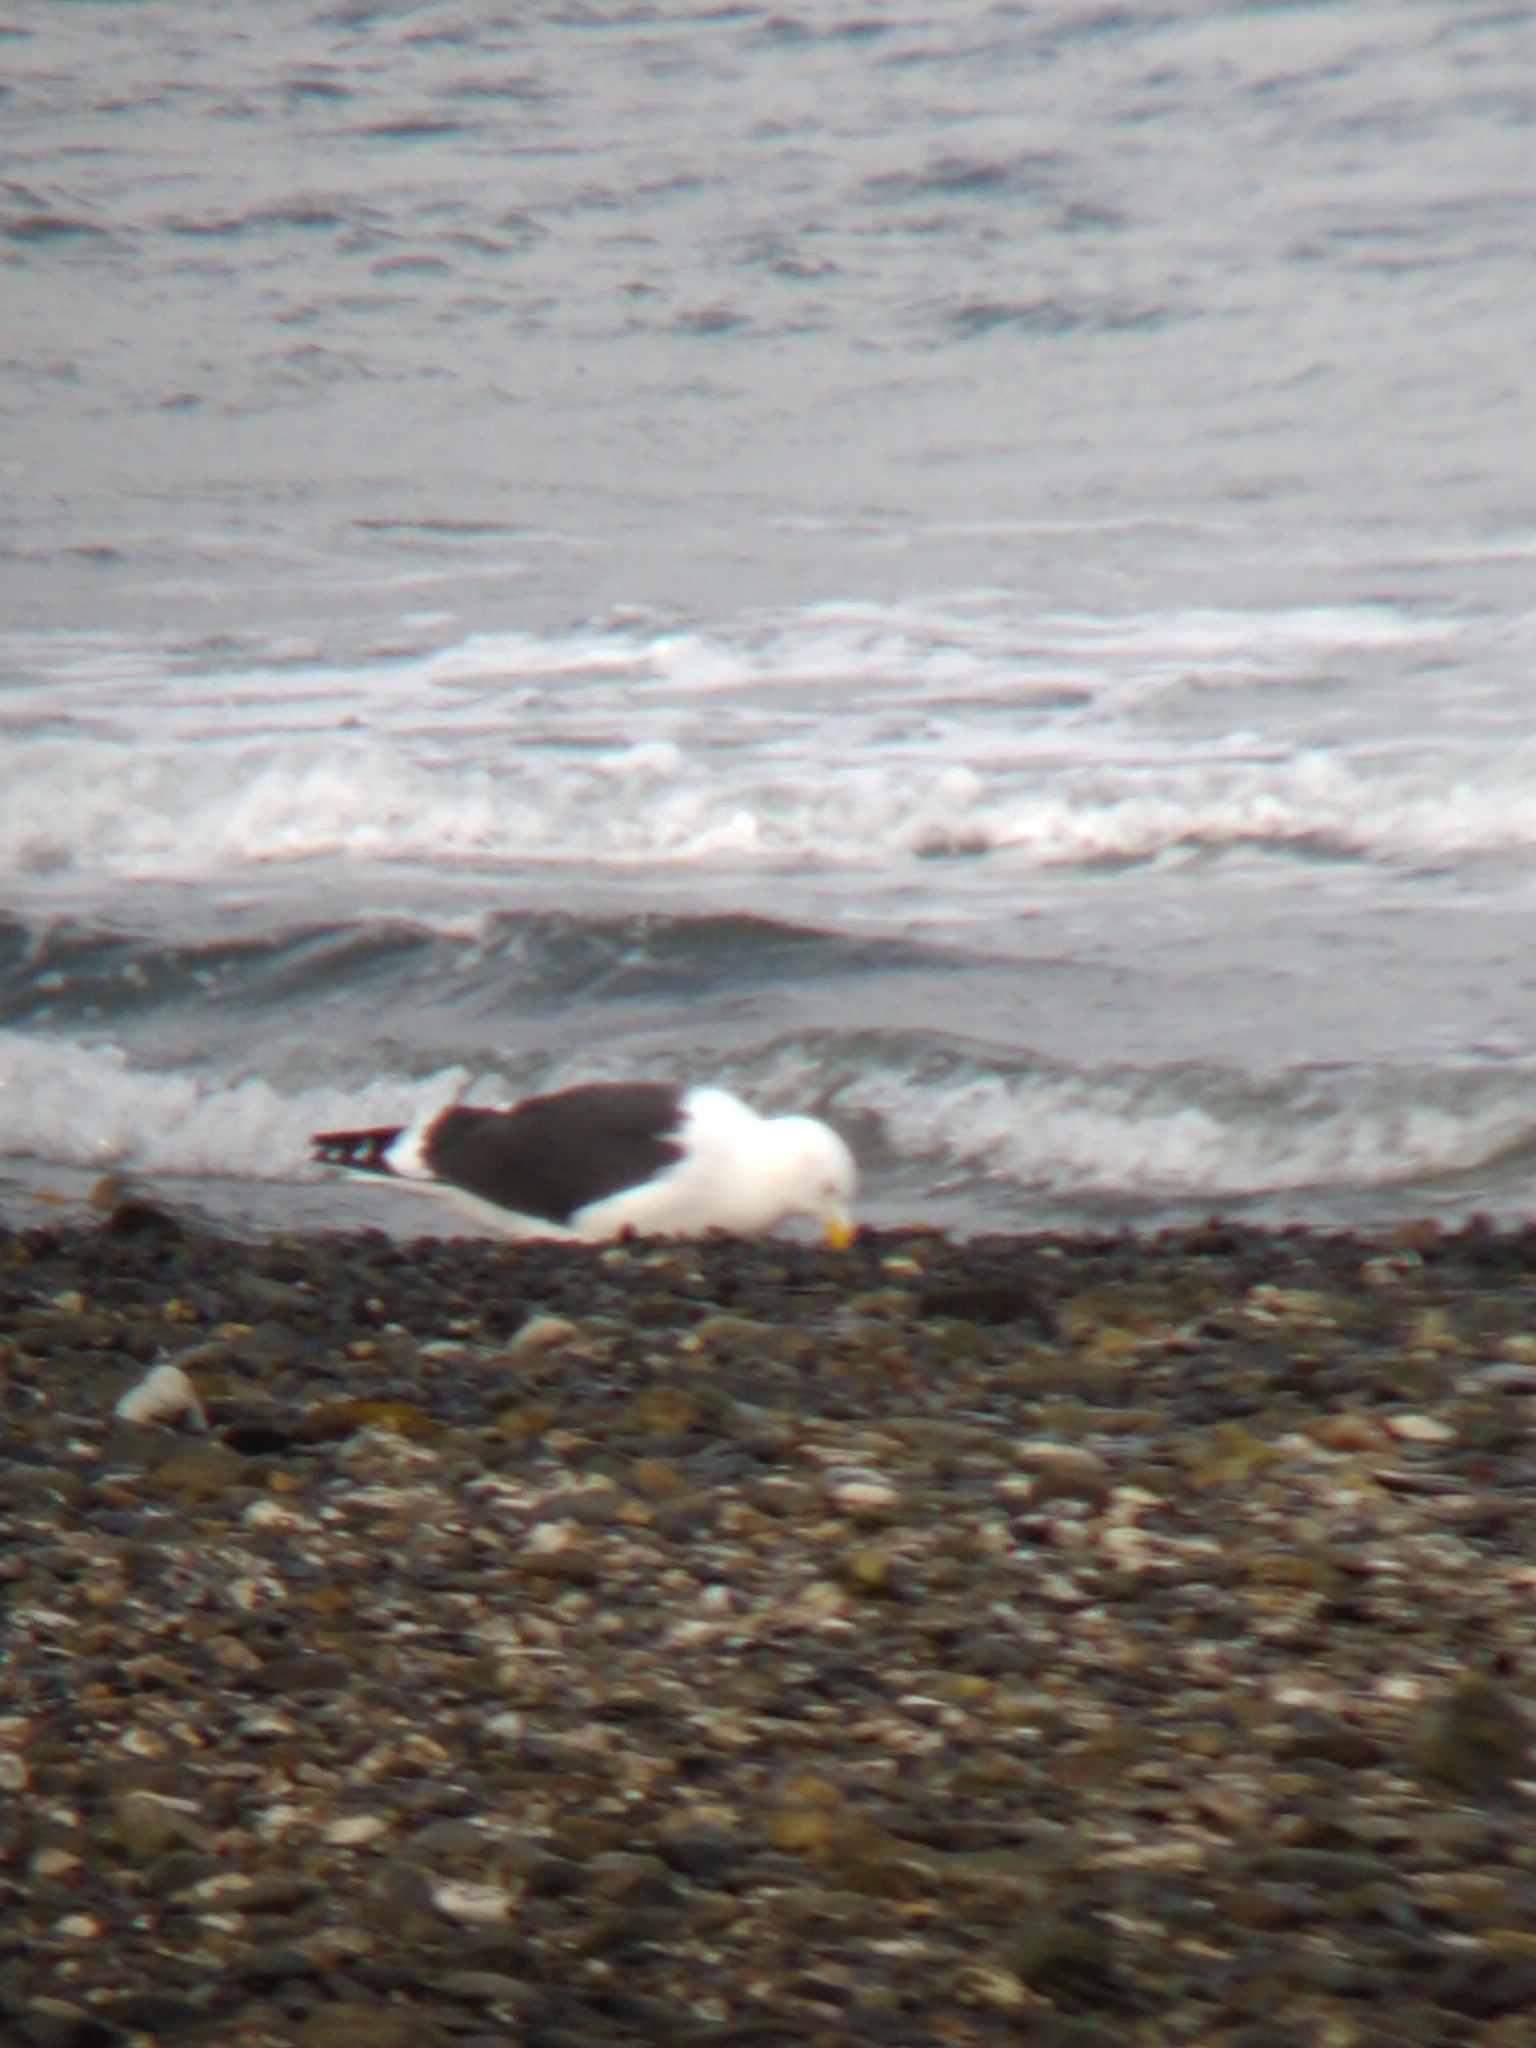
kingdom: Animalia
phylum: Chordata
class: Aves
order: Charadriiformes
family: Laridae
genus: Larus
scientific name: Larus dominicanus
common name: Kelp gull
